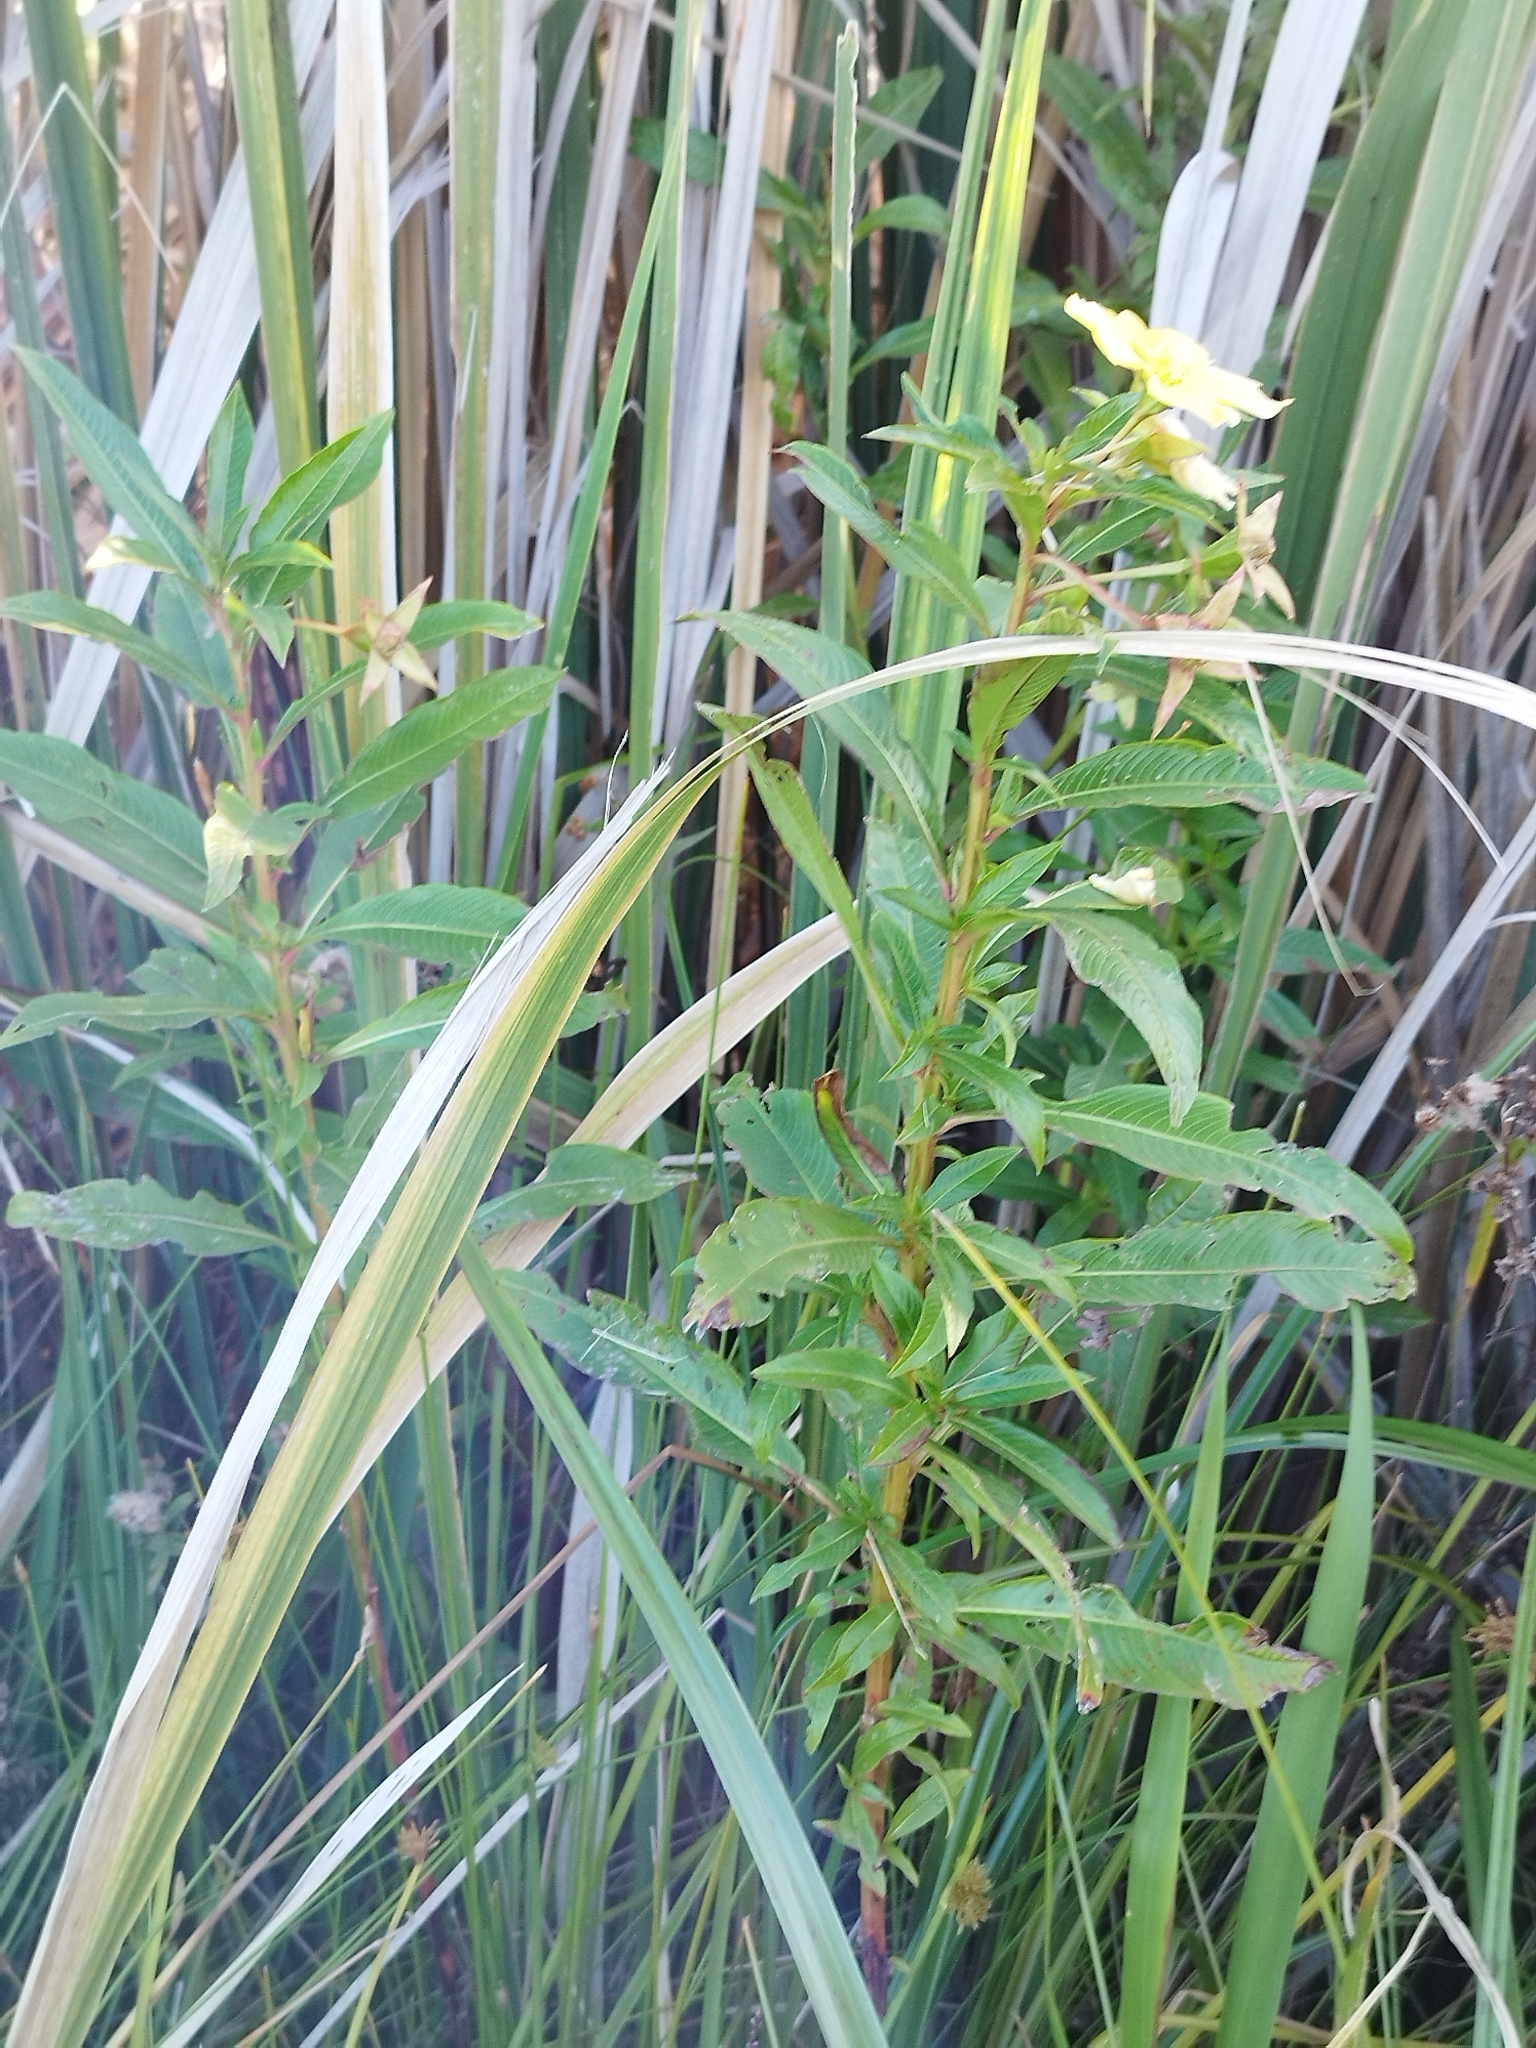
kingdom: Plantae
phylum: Tracheophyta
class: Magnoliopsida
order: Myrtales
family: Onagraceae
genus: Ludwigia
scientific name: Ludwigia elegans
